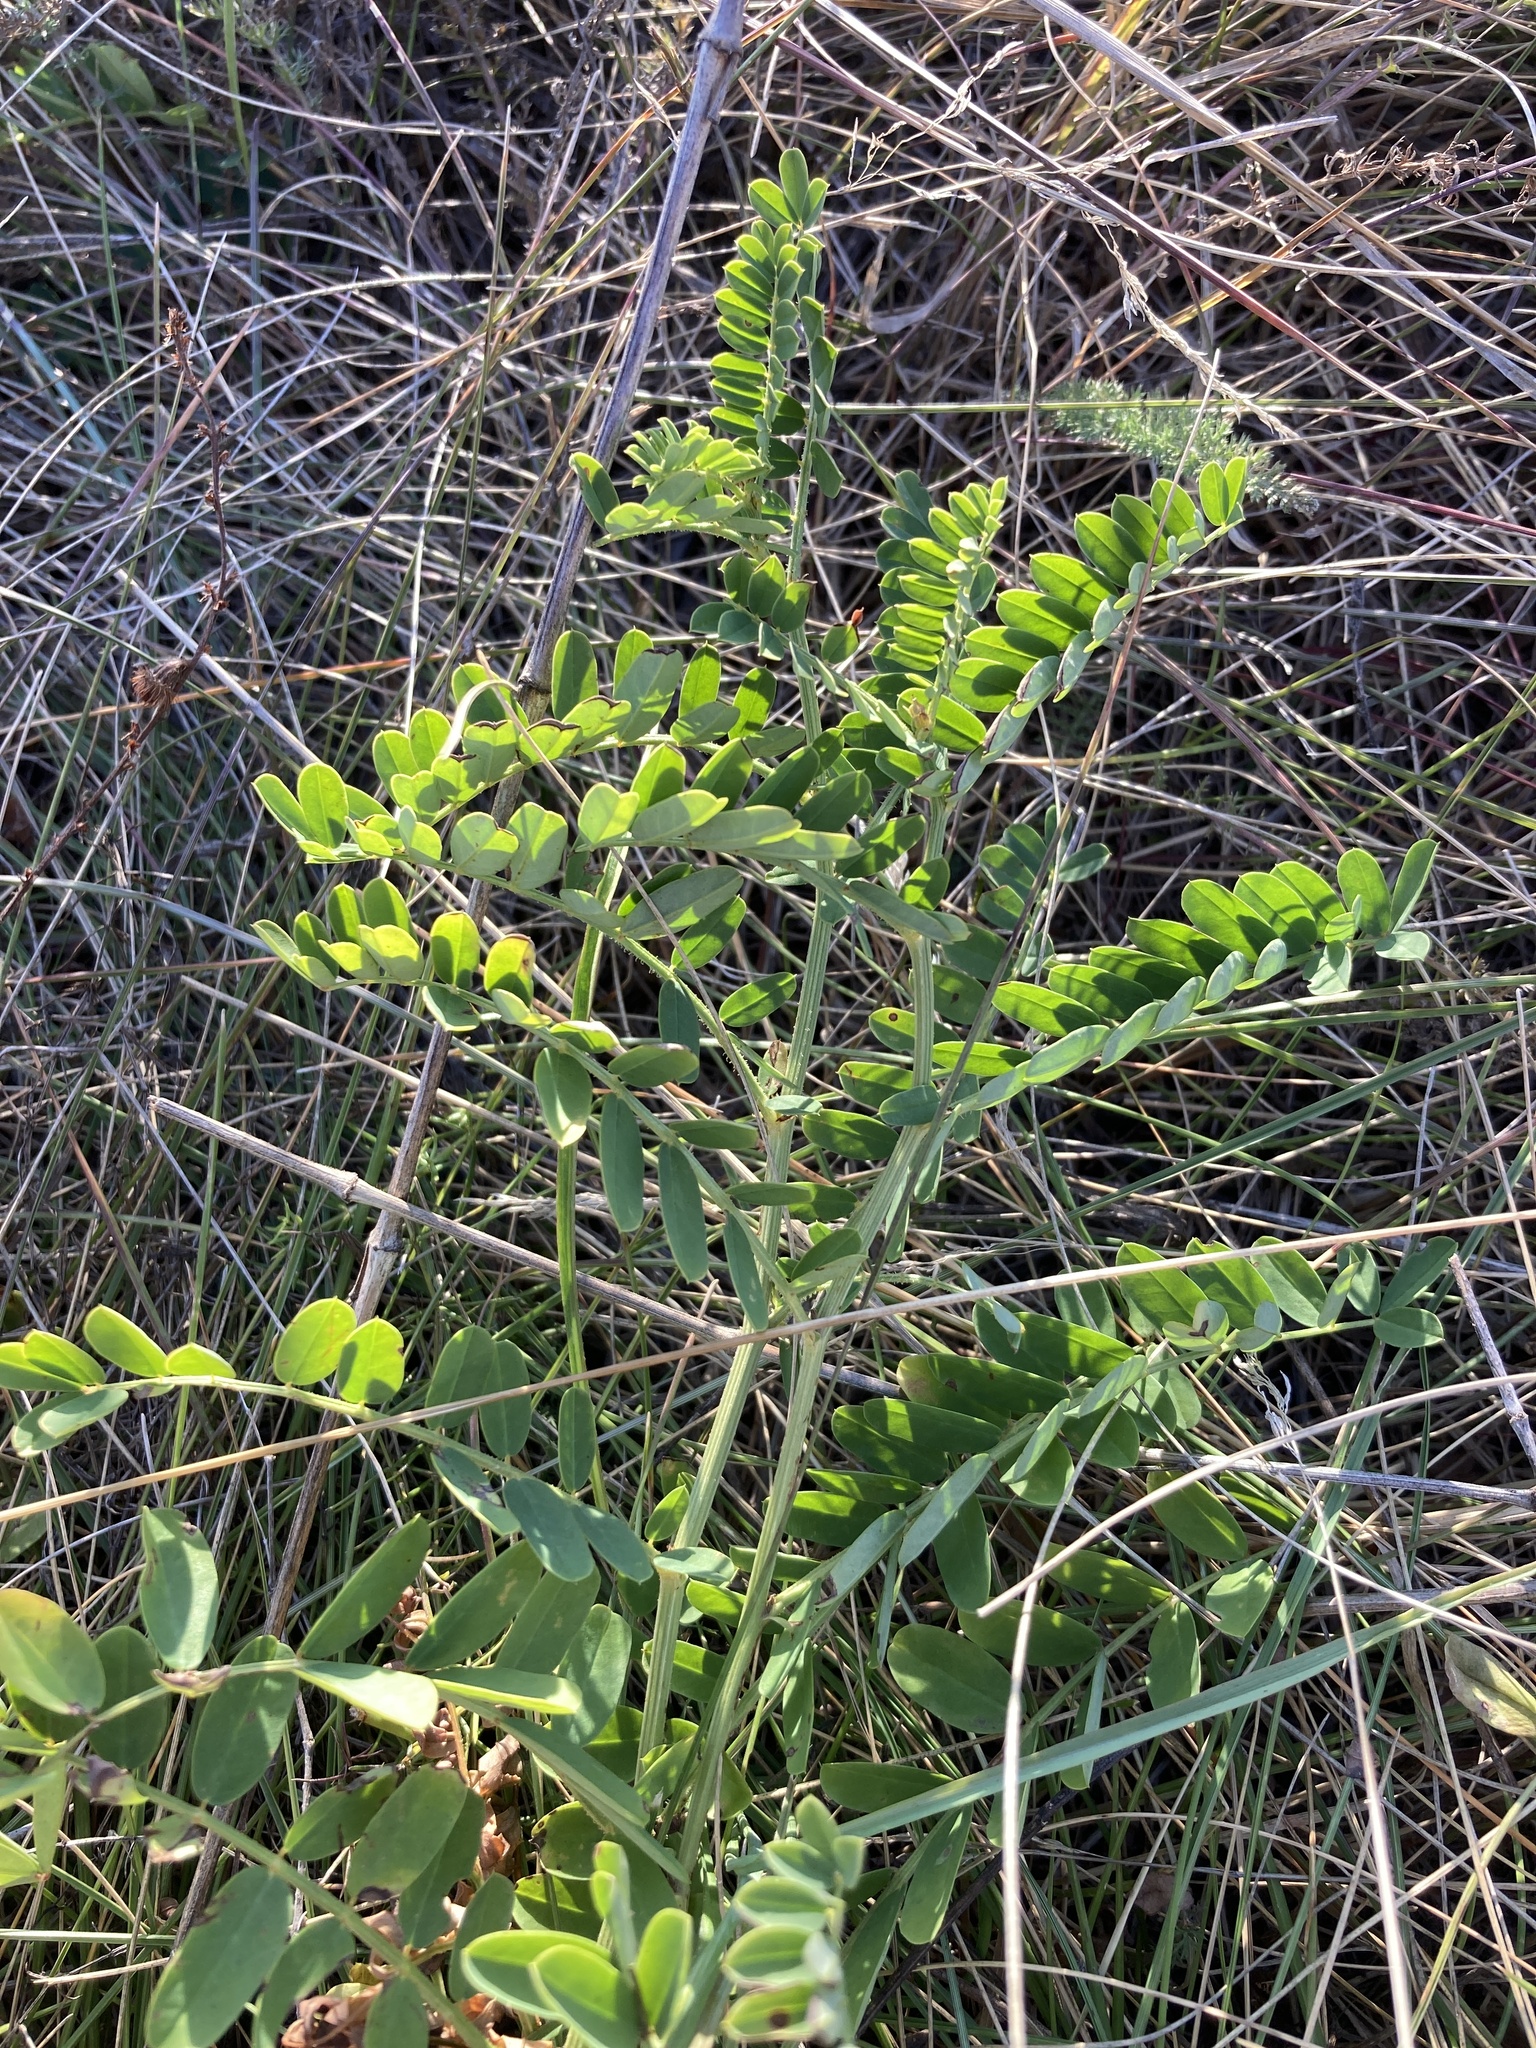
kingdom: Plantae
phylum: Tracheophyta
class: Magnoliopsida
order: Fabales
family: Fabaceae
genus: Coronilla
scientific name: Coronilla varia
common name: Crownvetch
